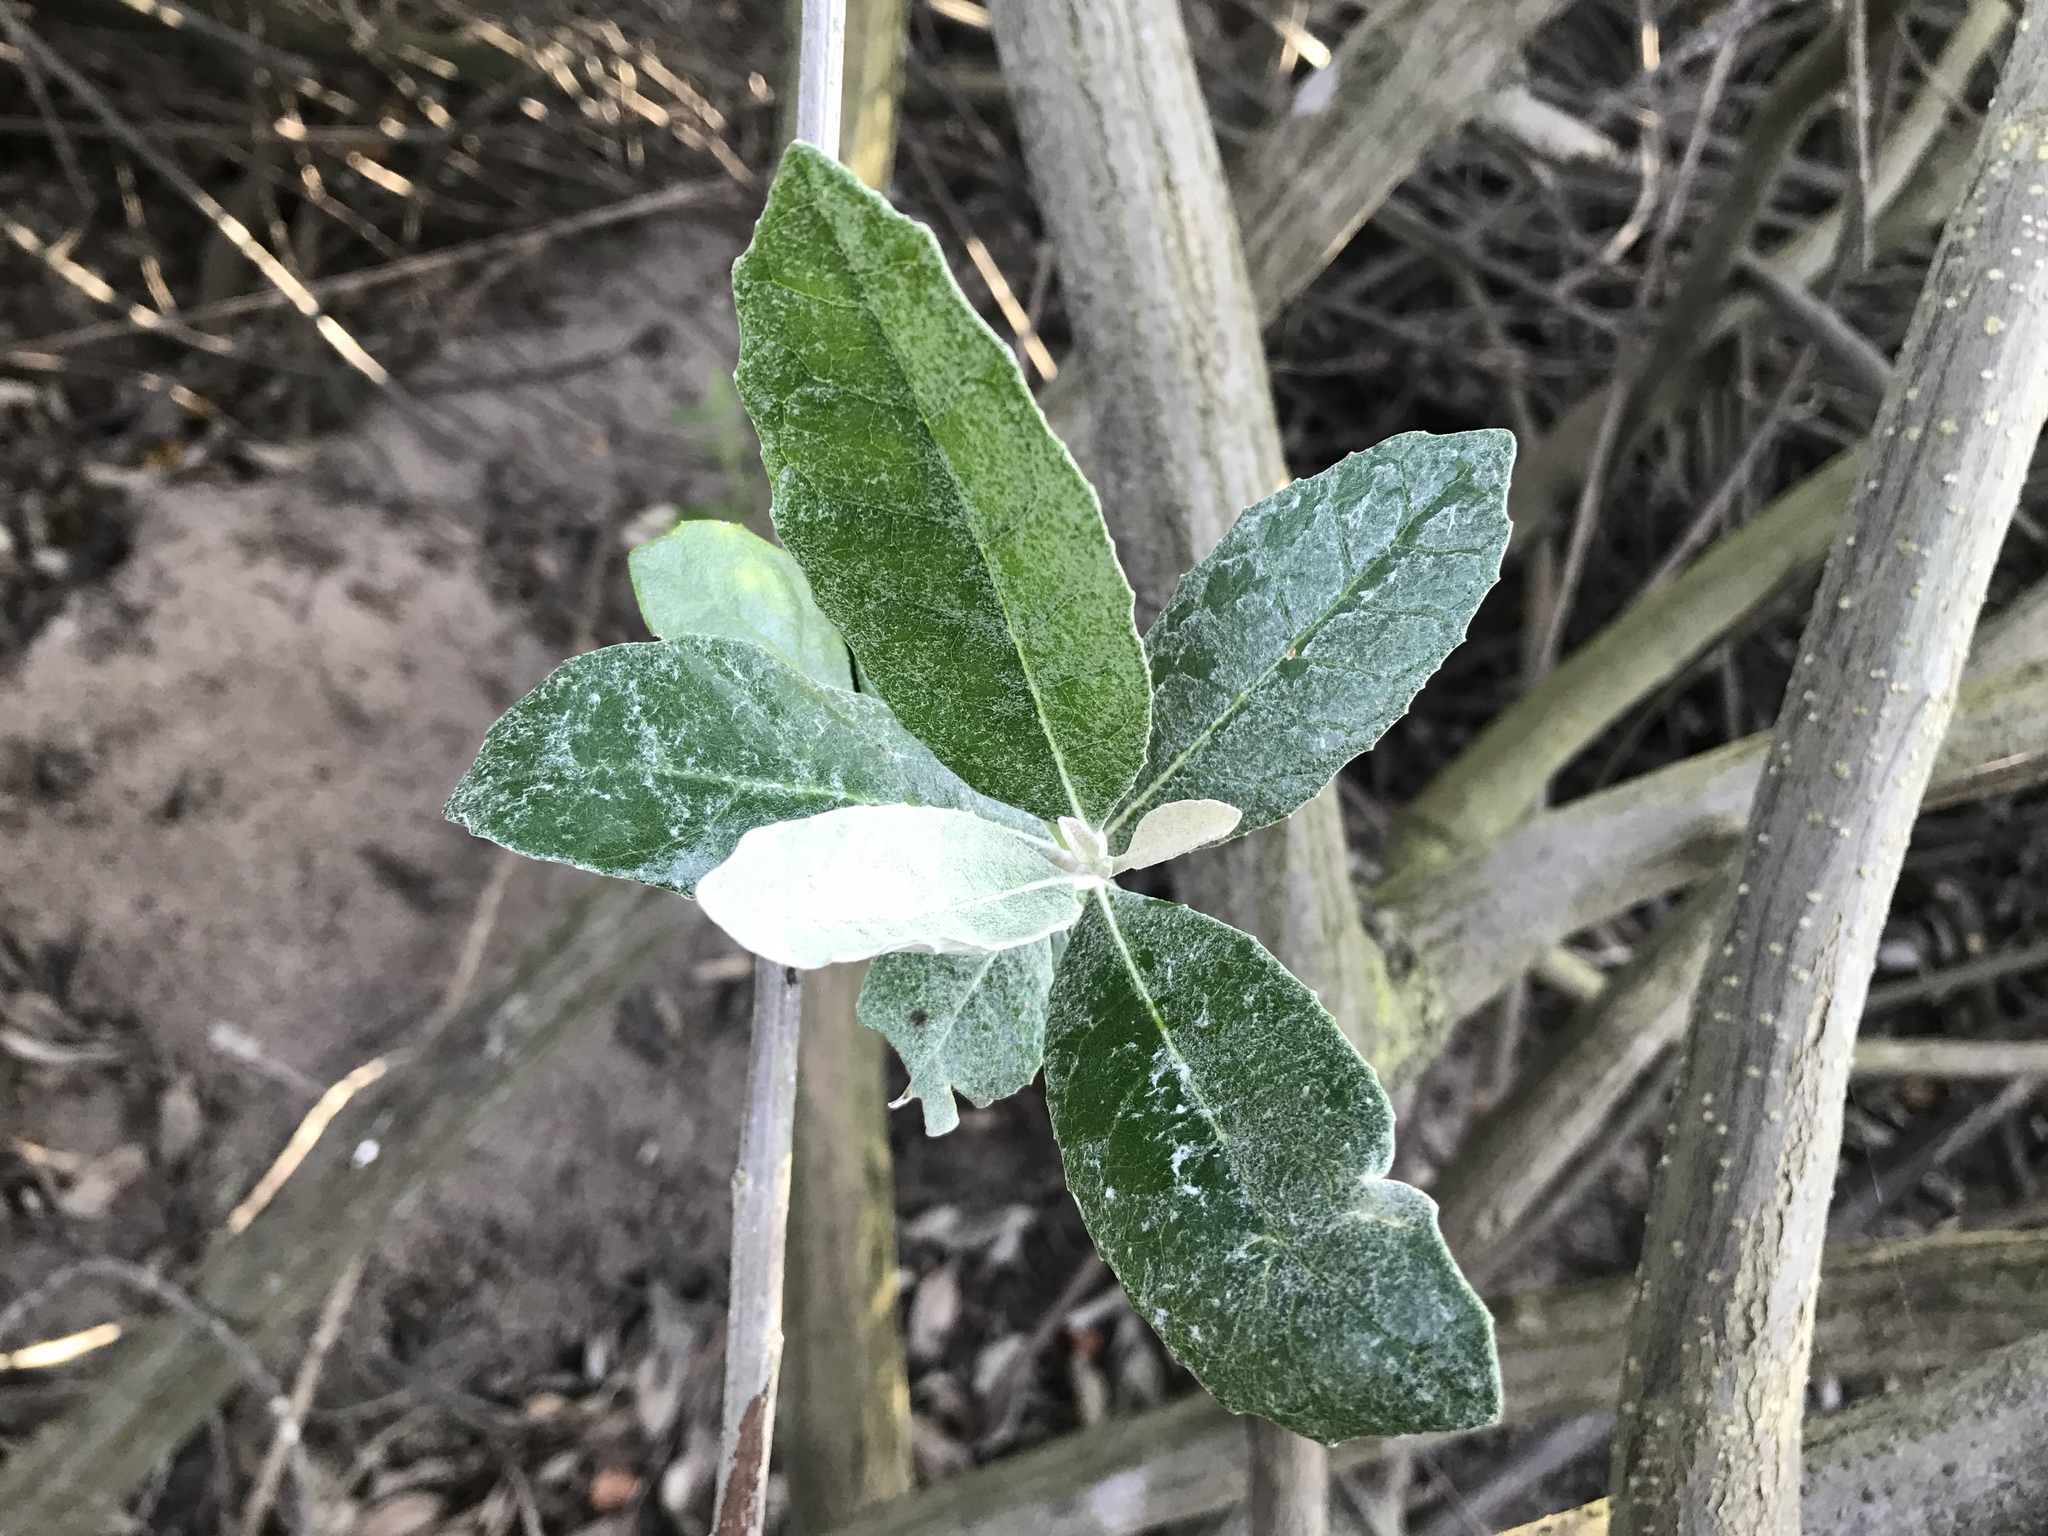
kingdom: Plantae
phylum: Tracheophyta
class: Magnoliopsida
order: Asterales
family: Asteraceae
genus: Brachylaena
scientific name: Brachylaena discolor
